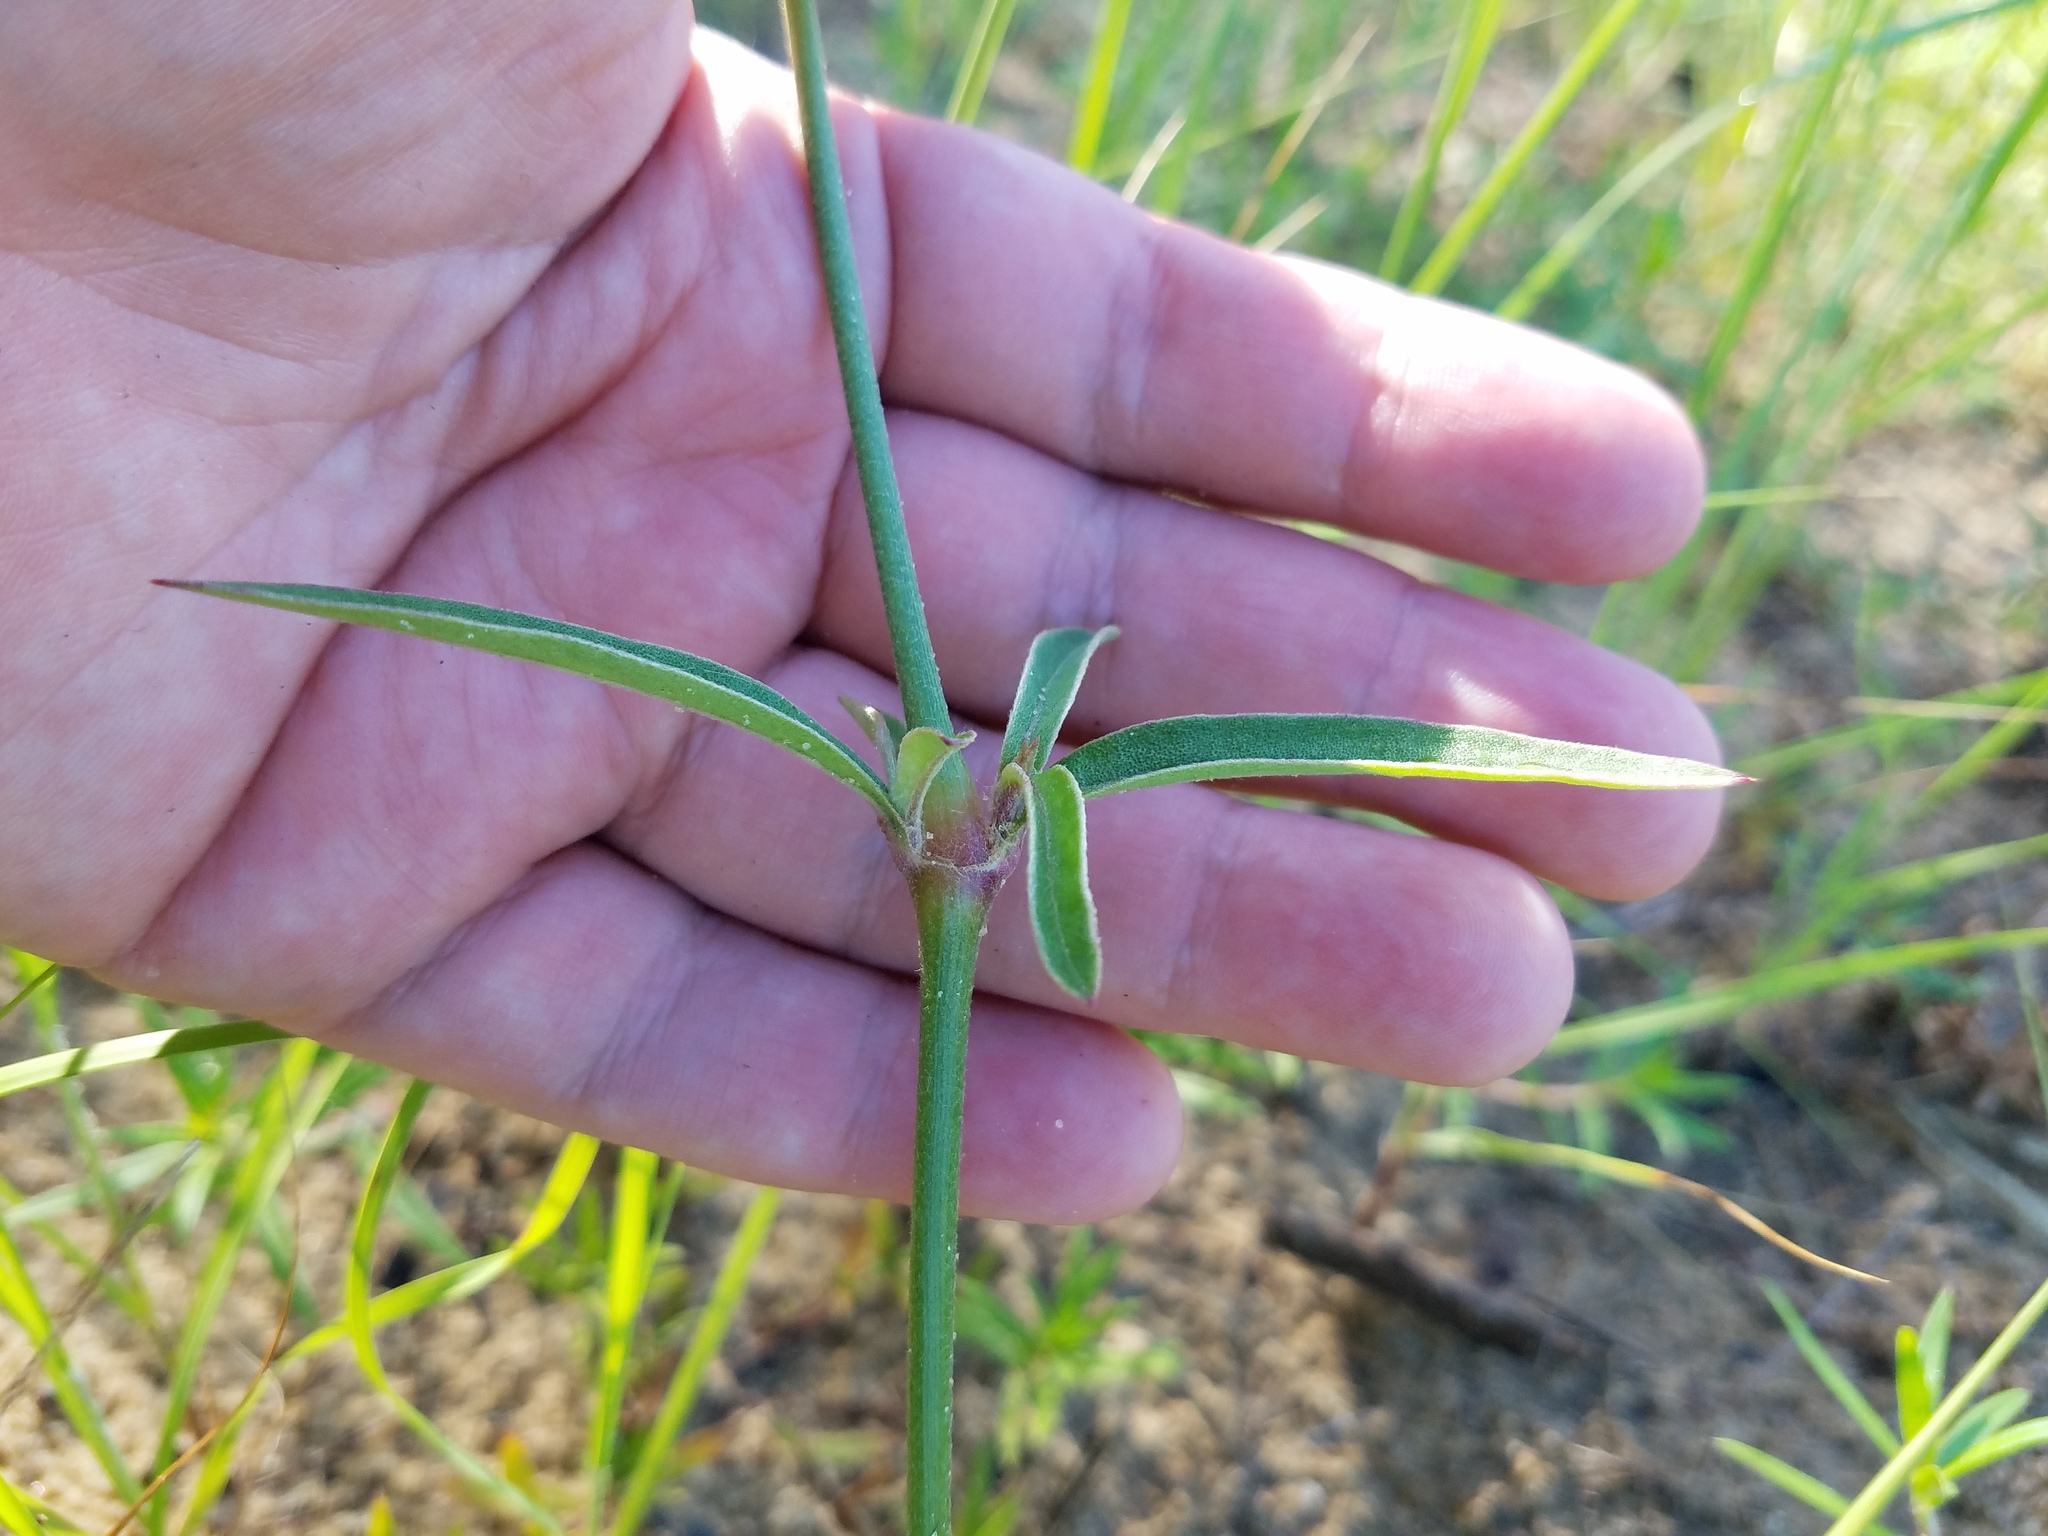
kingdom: Plantae
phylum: Tracheophyta
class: Magnoliopsida
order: Caryophyllales
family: Amaranthaceae
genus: Froelichia
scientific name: Froelichia floridana
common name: Florida snake-cotton
